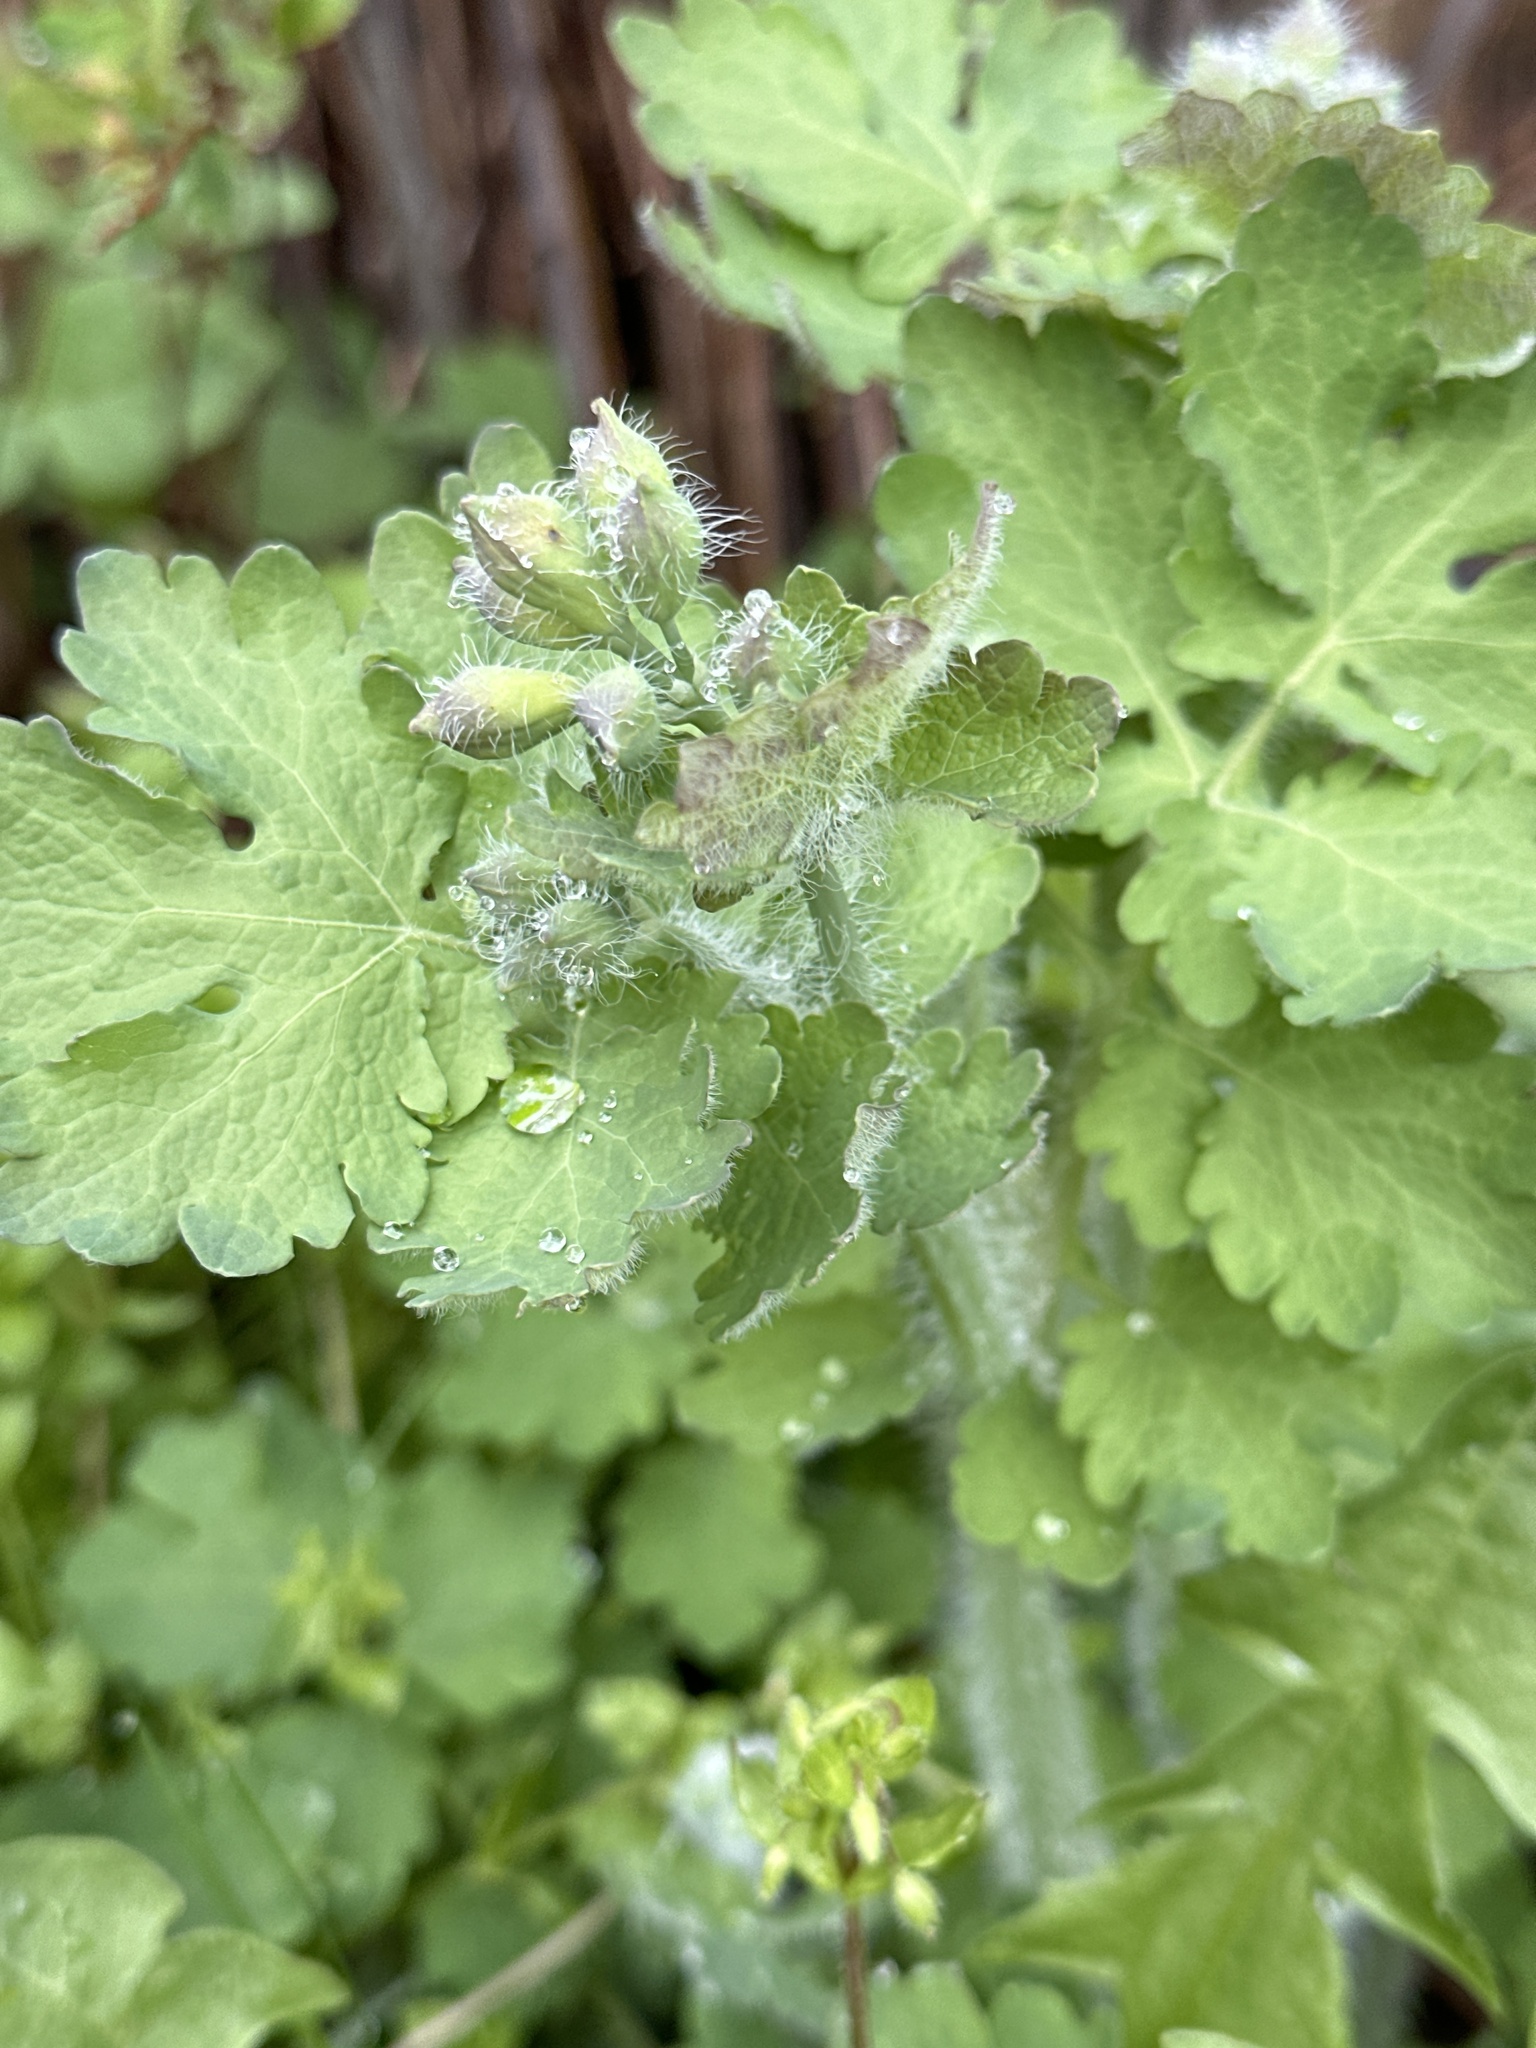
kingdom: Plantae
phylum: Tracheophyta
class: Magnoliopsida
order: Ranunculales
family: Papaveraceae
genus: Chelidonium
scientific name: Chelidonium majus
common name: Greater celandine
